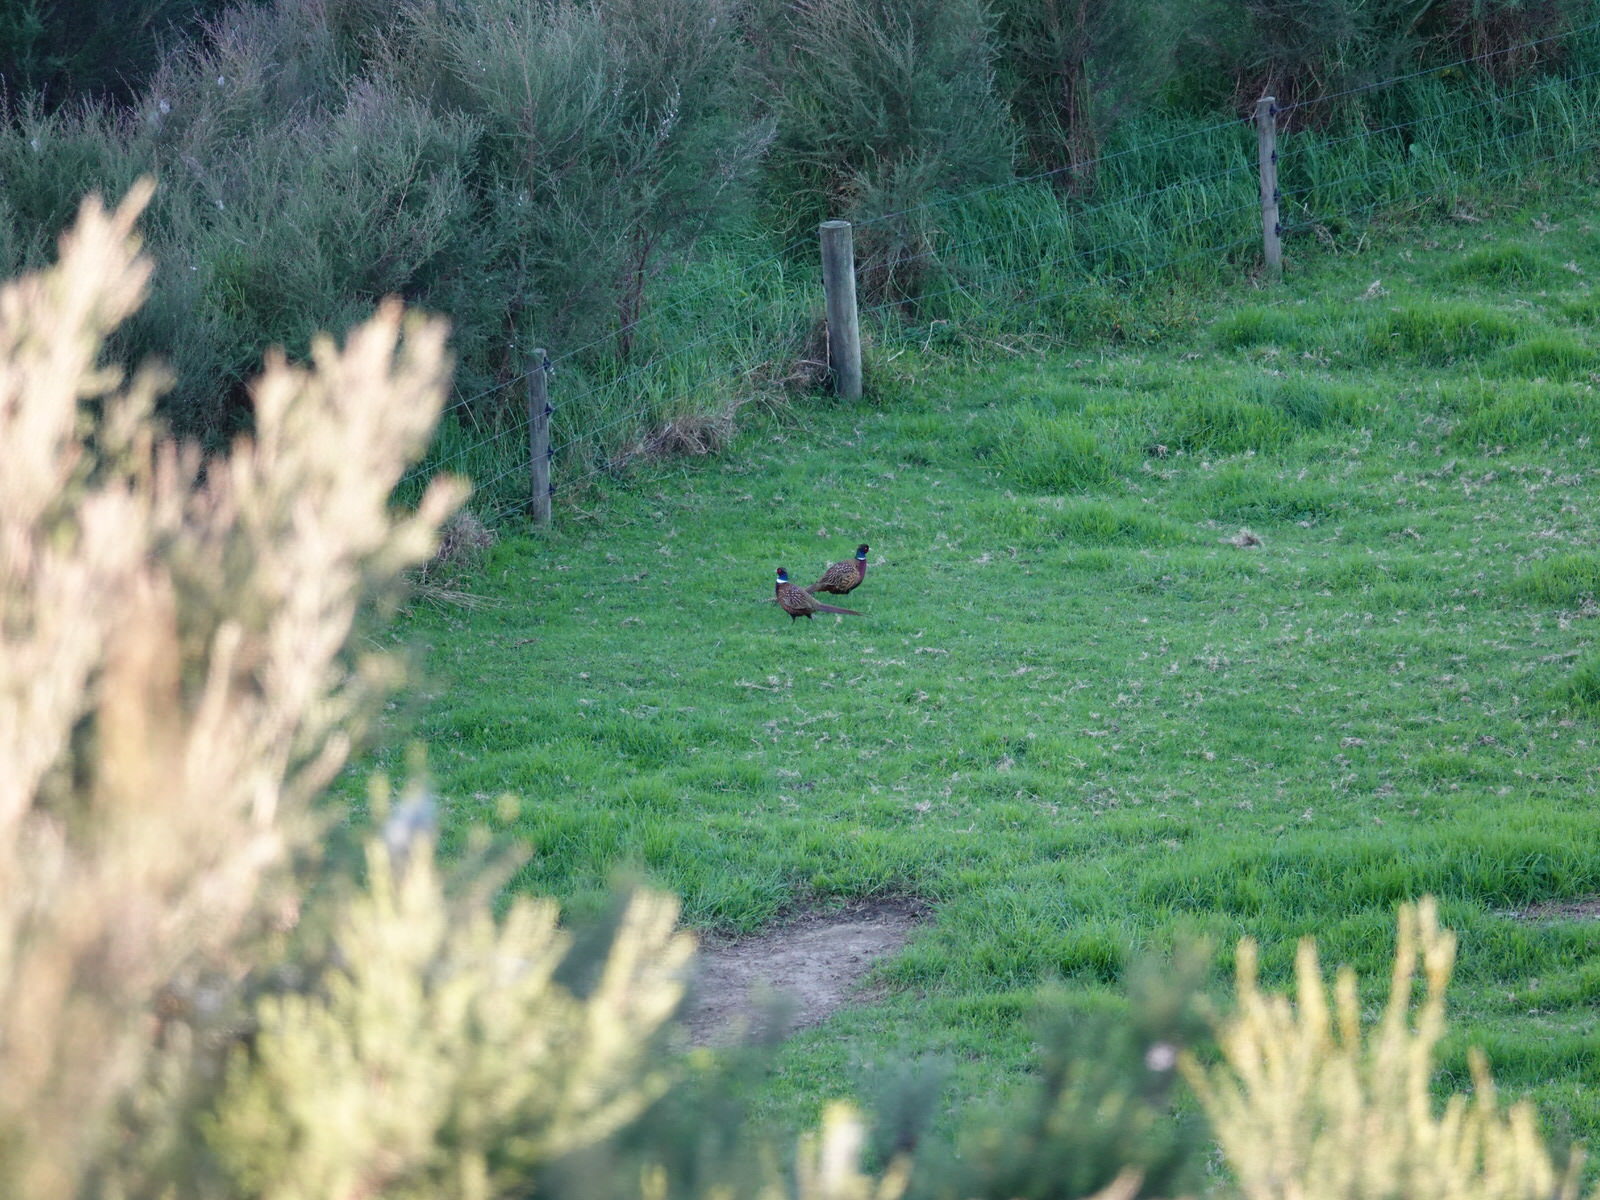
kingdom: Animalia
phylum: Chordata
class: Aves
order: Galliformes
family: Phasianidae
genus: Phasianus
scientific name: Phasianus colchicus
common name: Common pheasant
